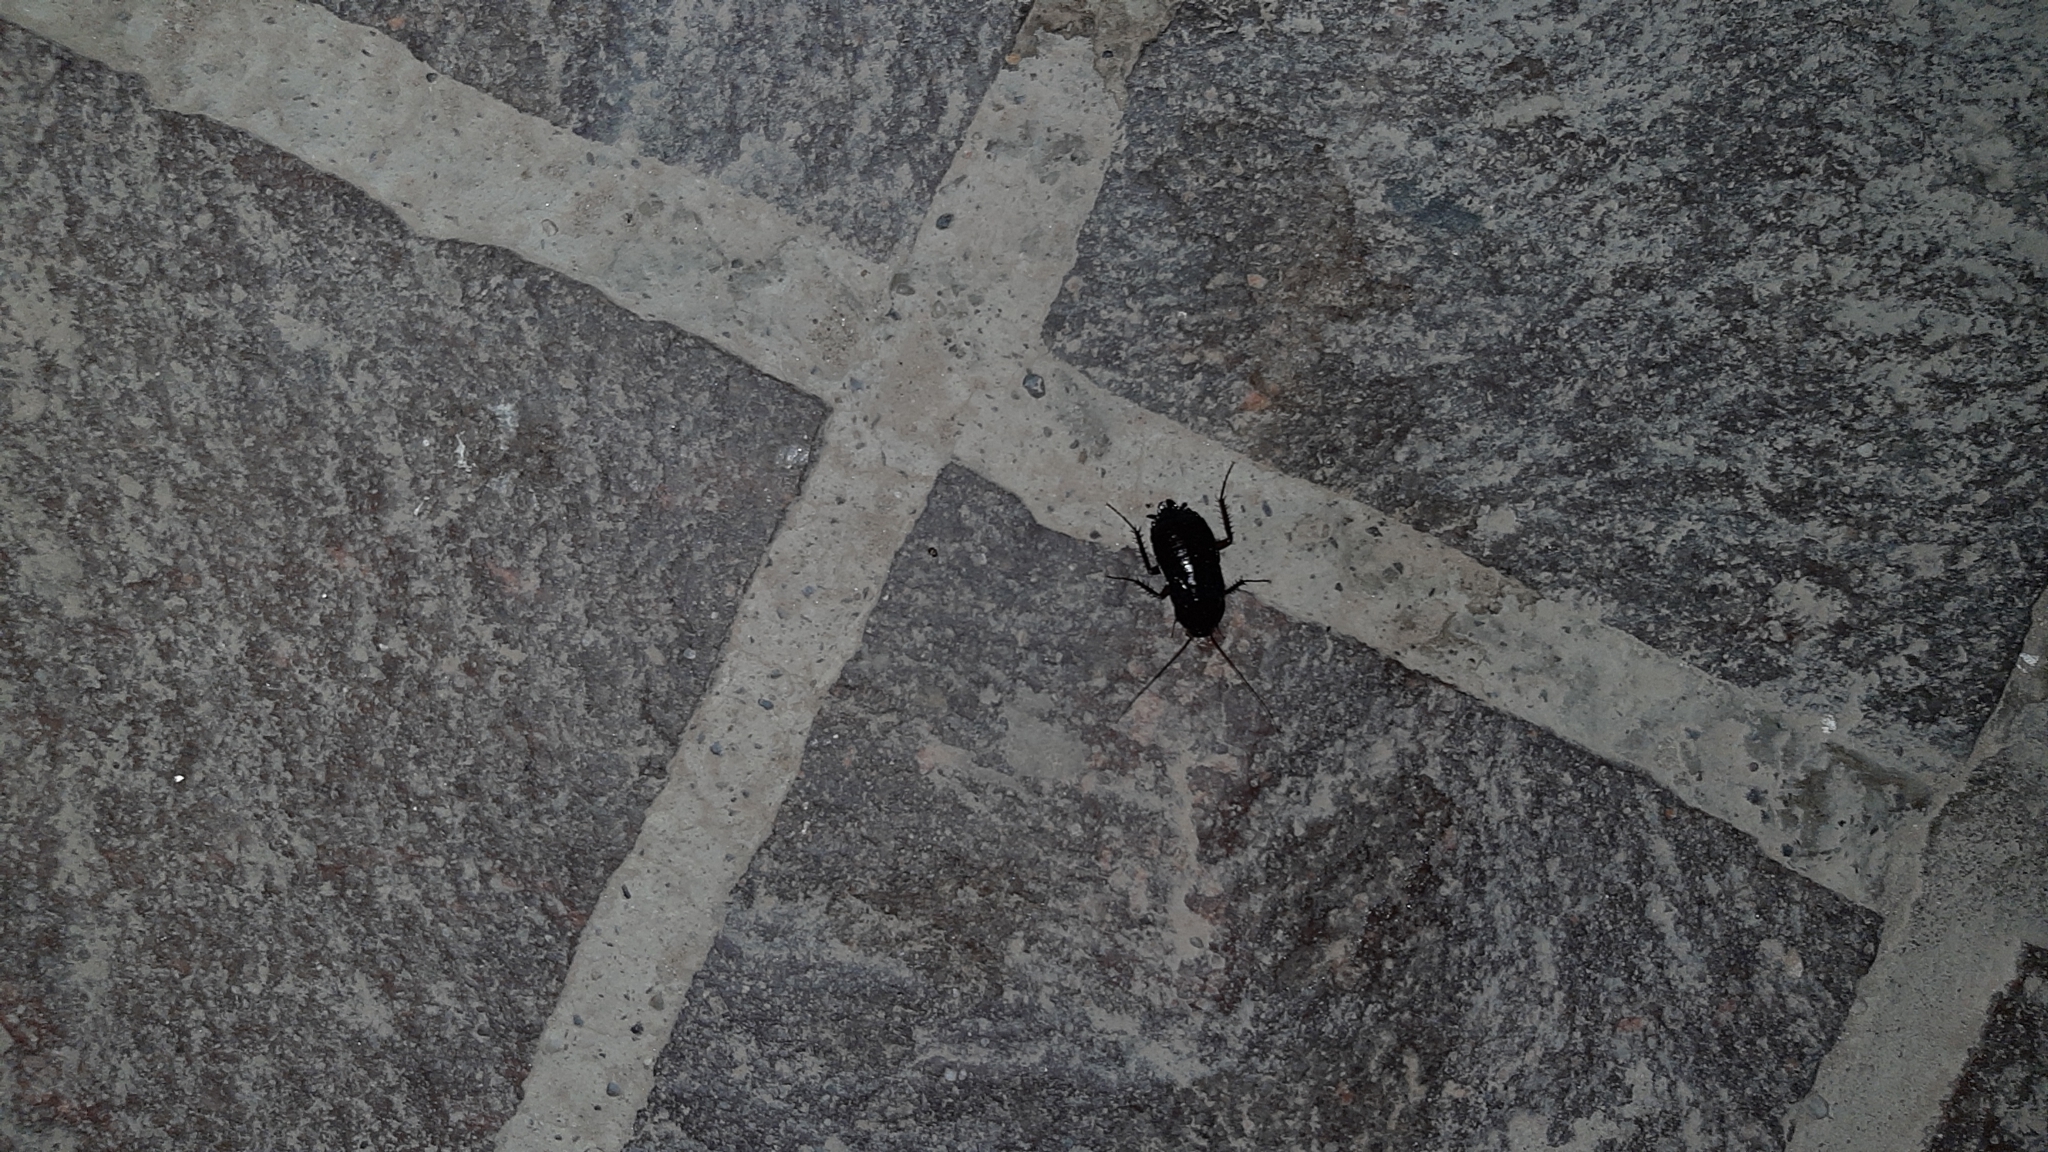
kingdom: Animalia
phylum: Arthropoda
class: Insecta
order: Blattodea
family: Blattidae
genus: Blatta
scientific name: Blatta orientalis
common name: Oriental cockroach
